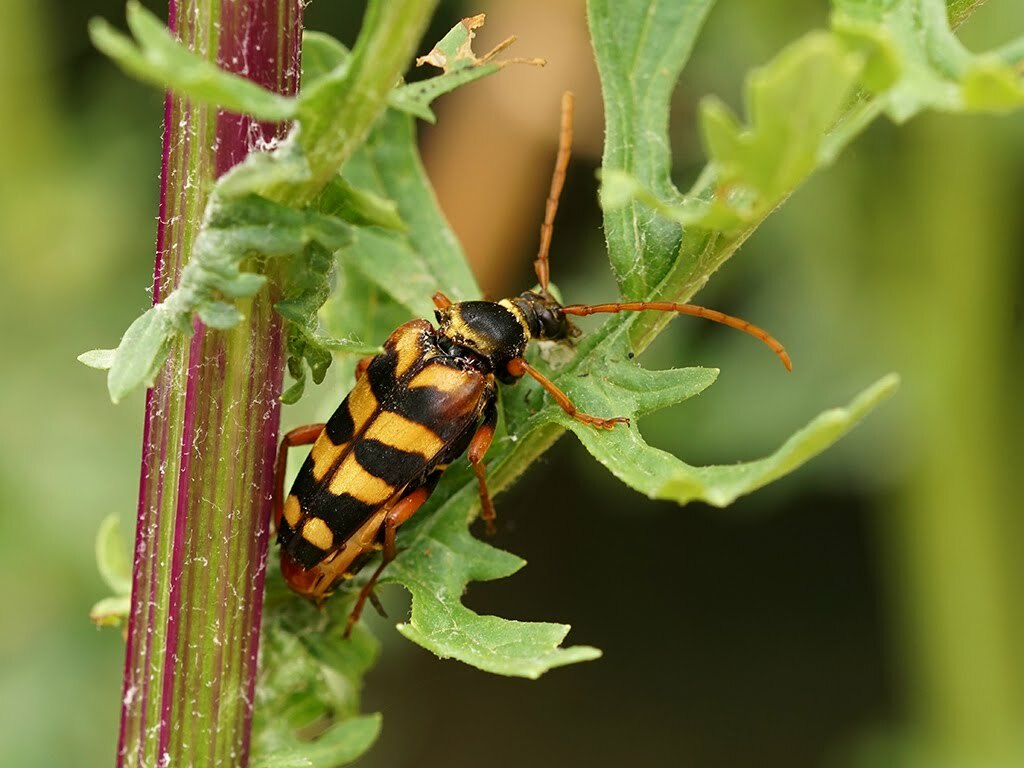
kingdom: Animalia
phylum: Arthropoda
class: Insecta
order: Coleoptera
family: Cerambycidae
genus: Leptura
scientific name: Leptura aurulenta
